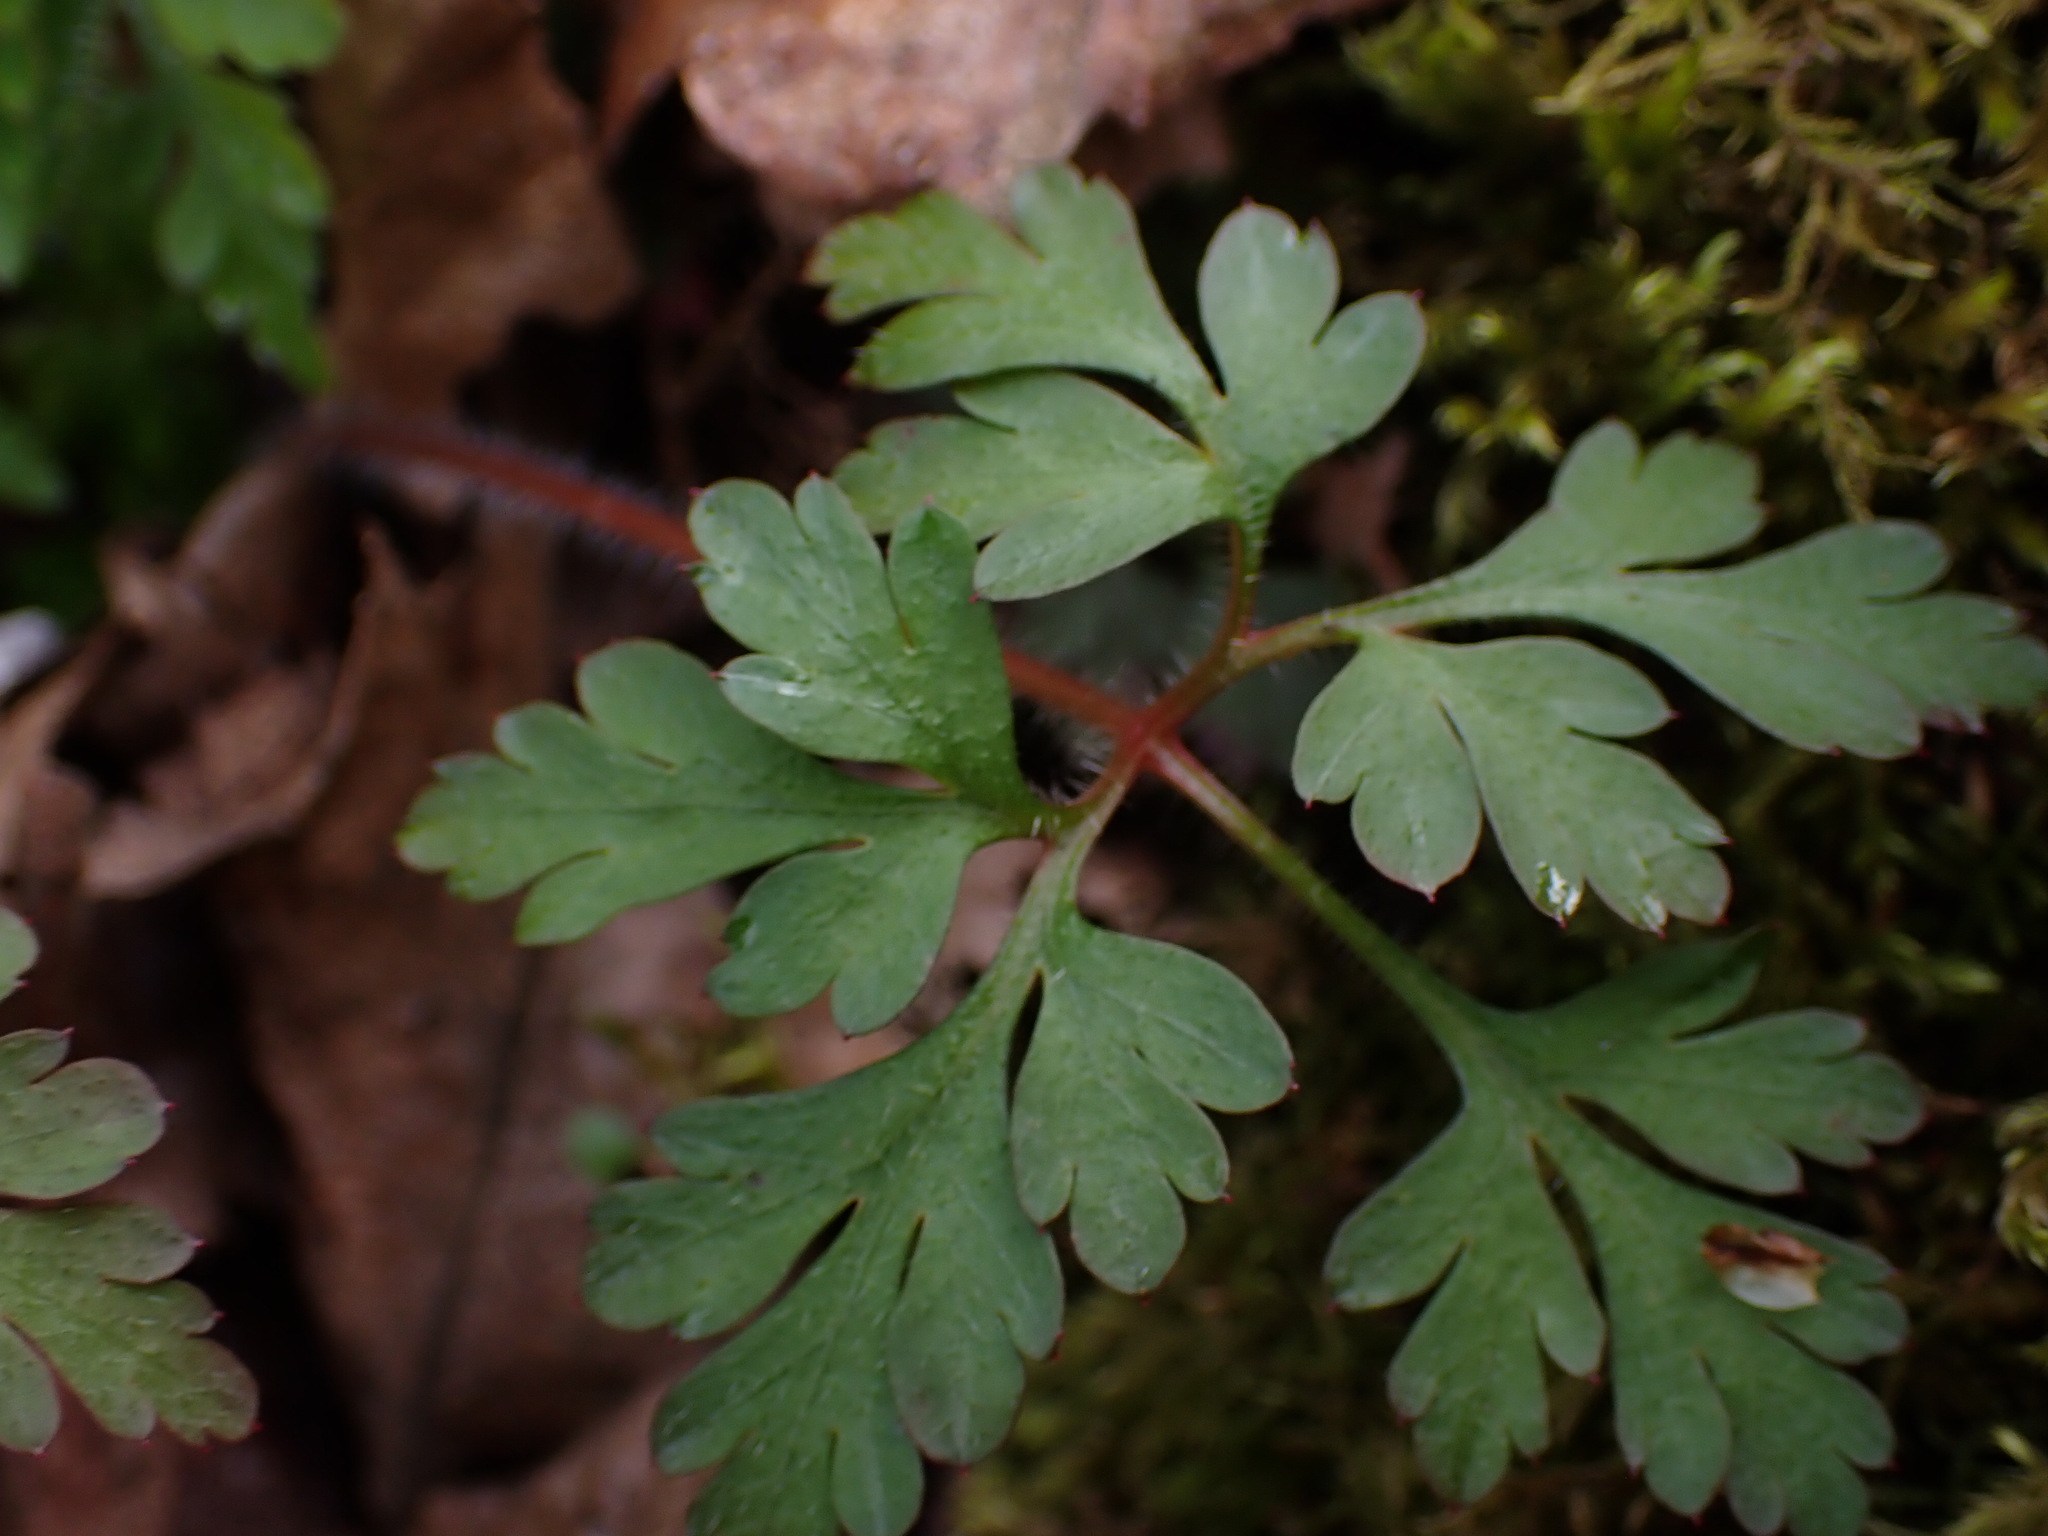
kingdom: Plantae
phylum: Tracheophyta
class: Magnoliopsida
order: Geraniales
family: Geraniaceae
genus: Geranium
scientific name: Geranium robertianum
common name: Herb-robert
